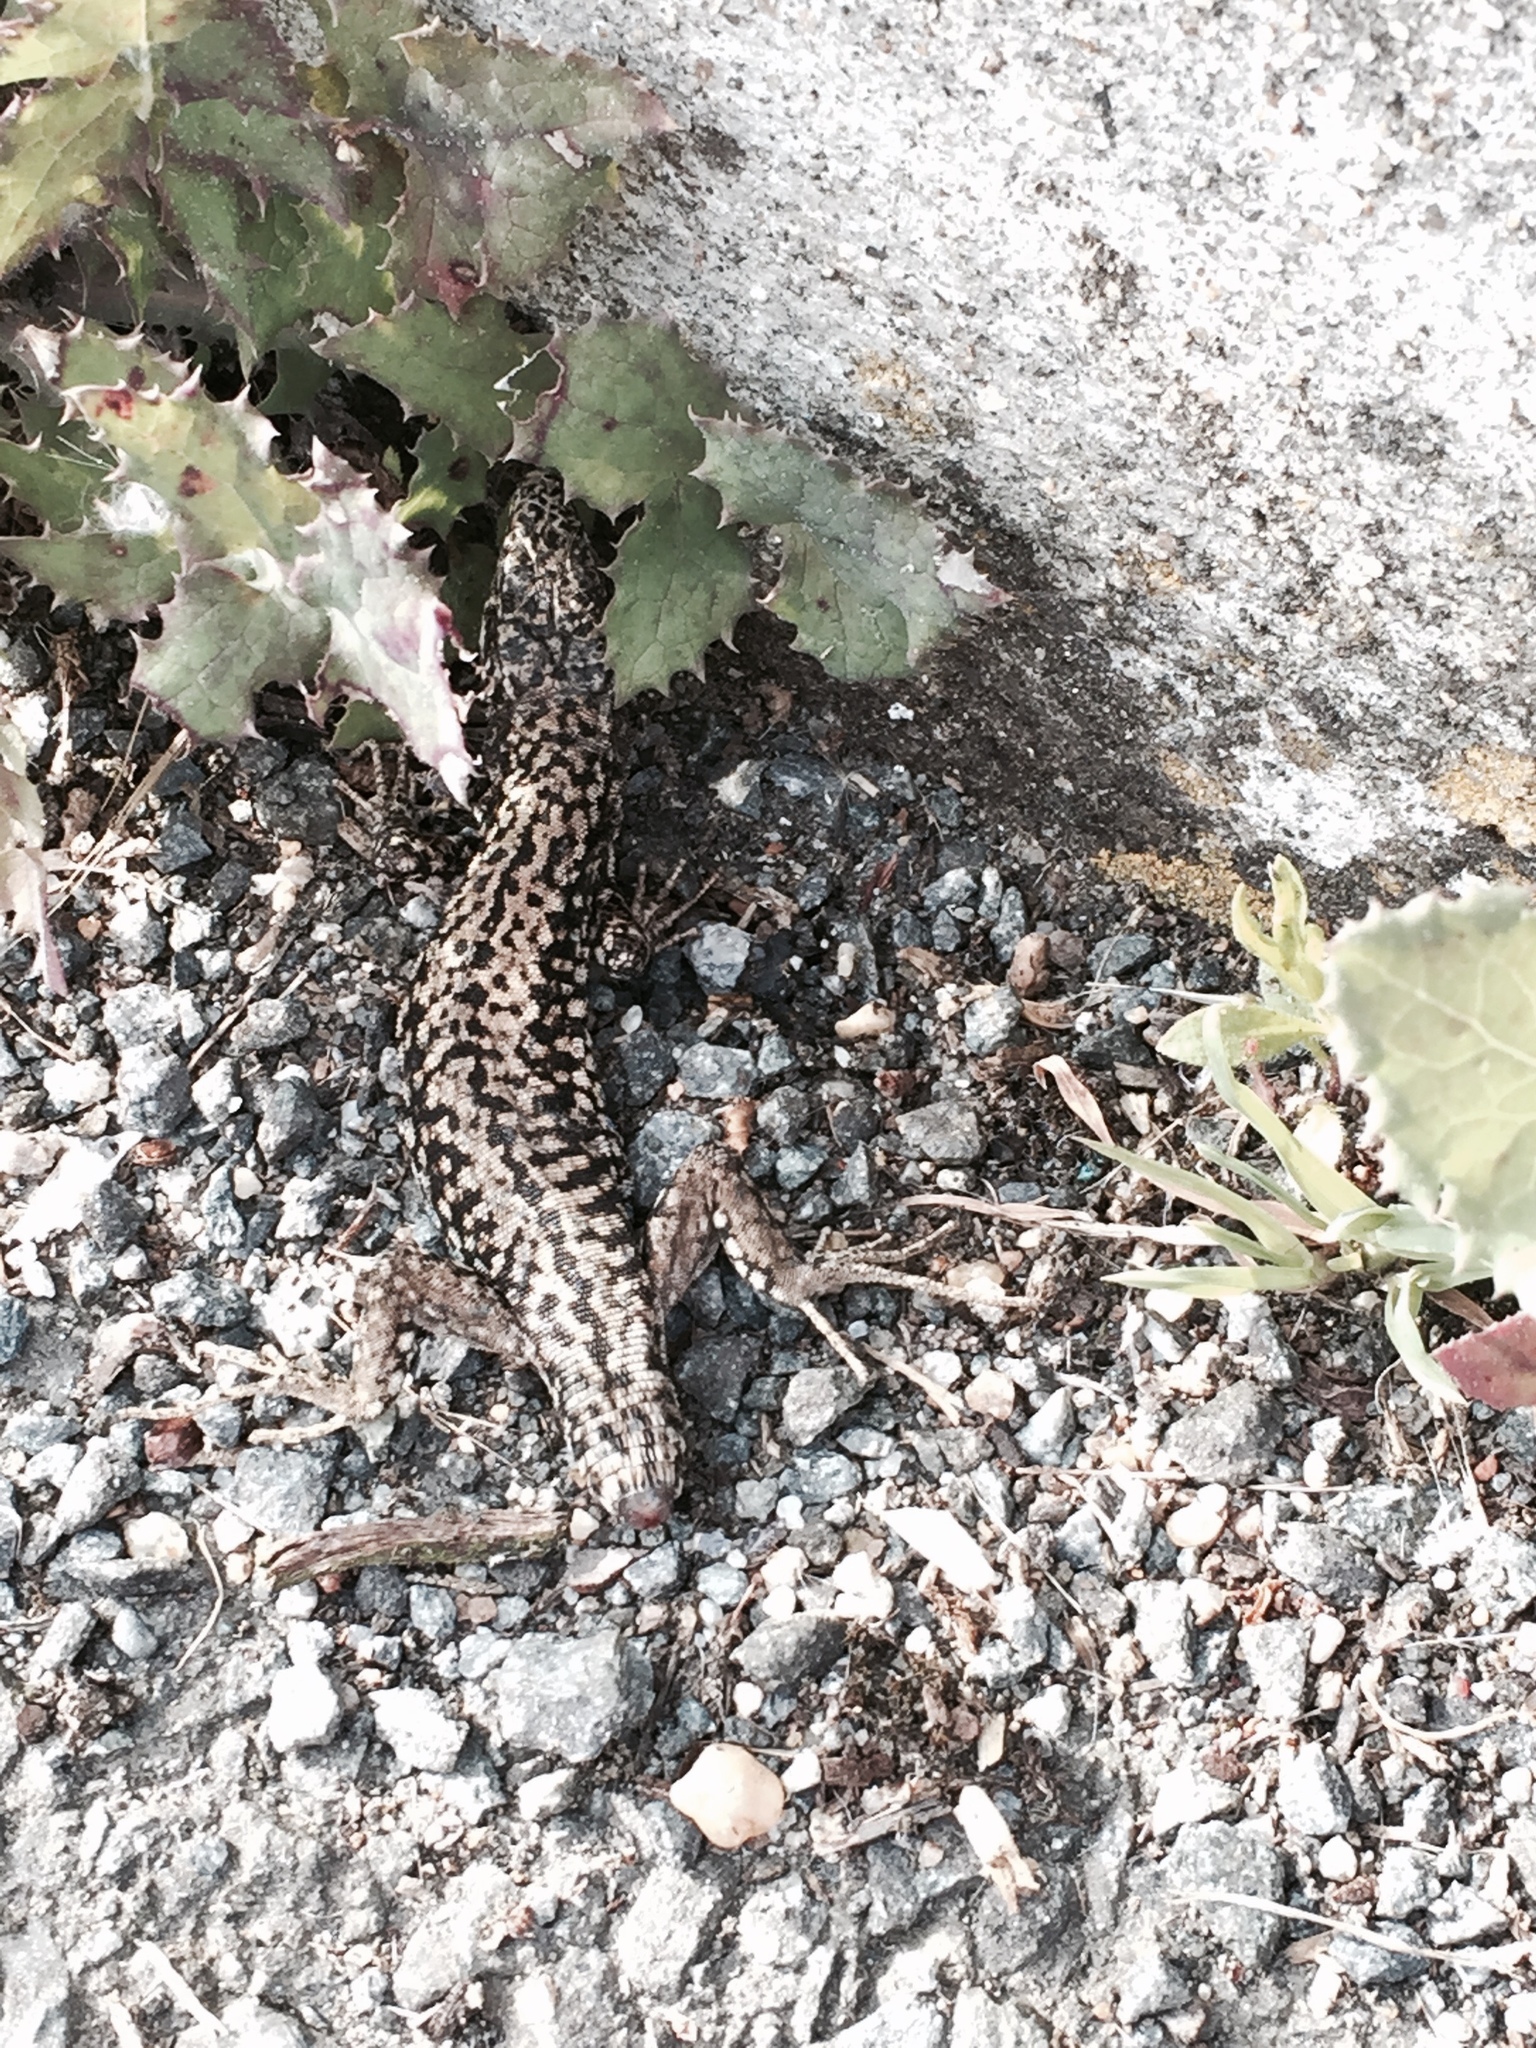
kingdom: Animalia
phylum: Chordata
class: Squamata
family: Lacertidae
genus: Podarcis
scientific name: Podarcis muralis
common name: Common wall lizard
